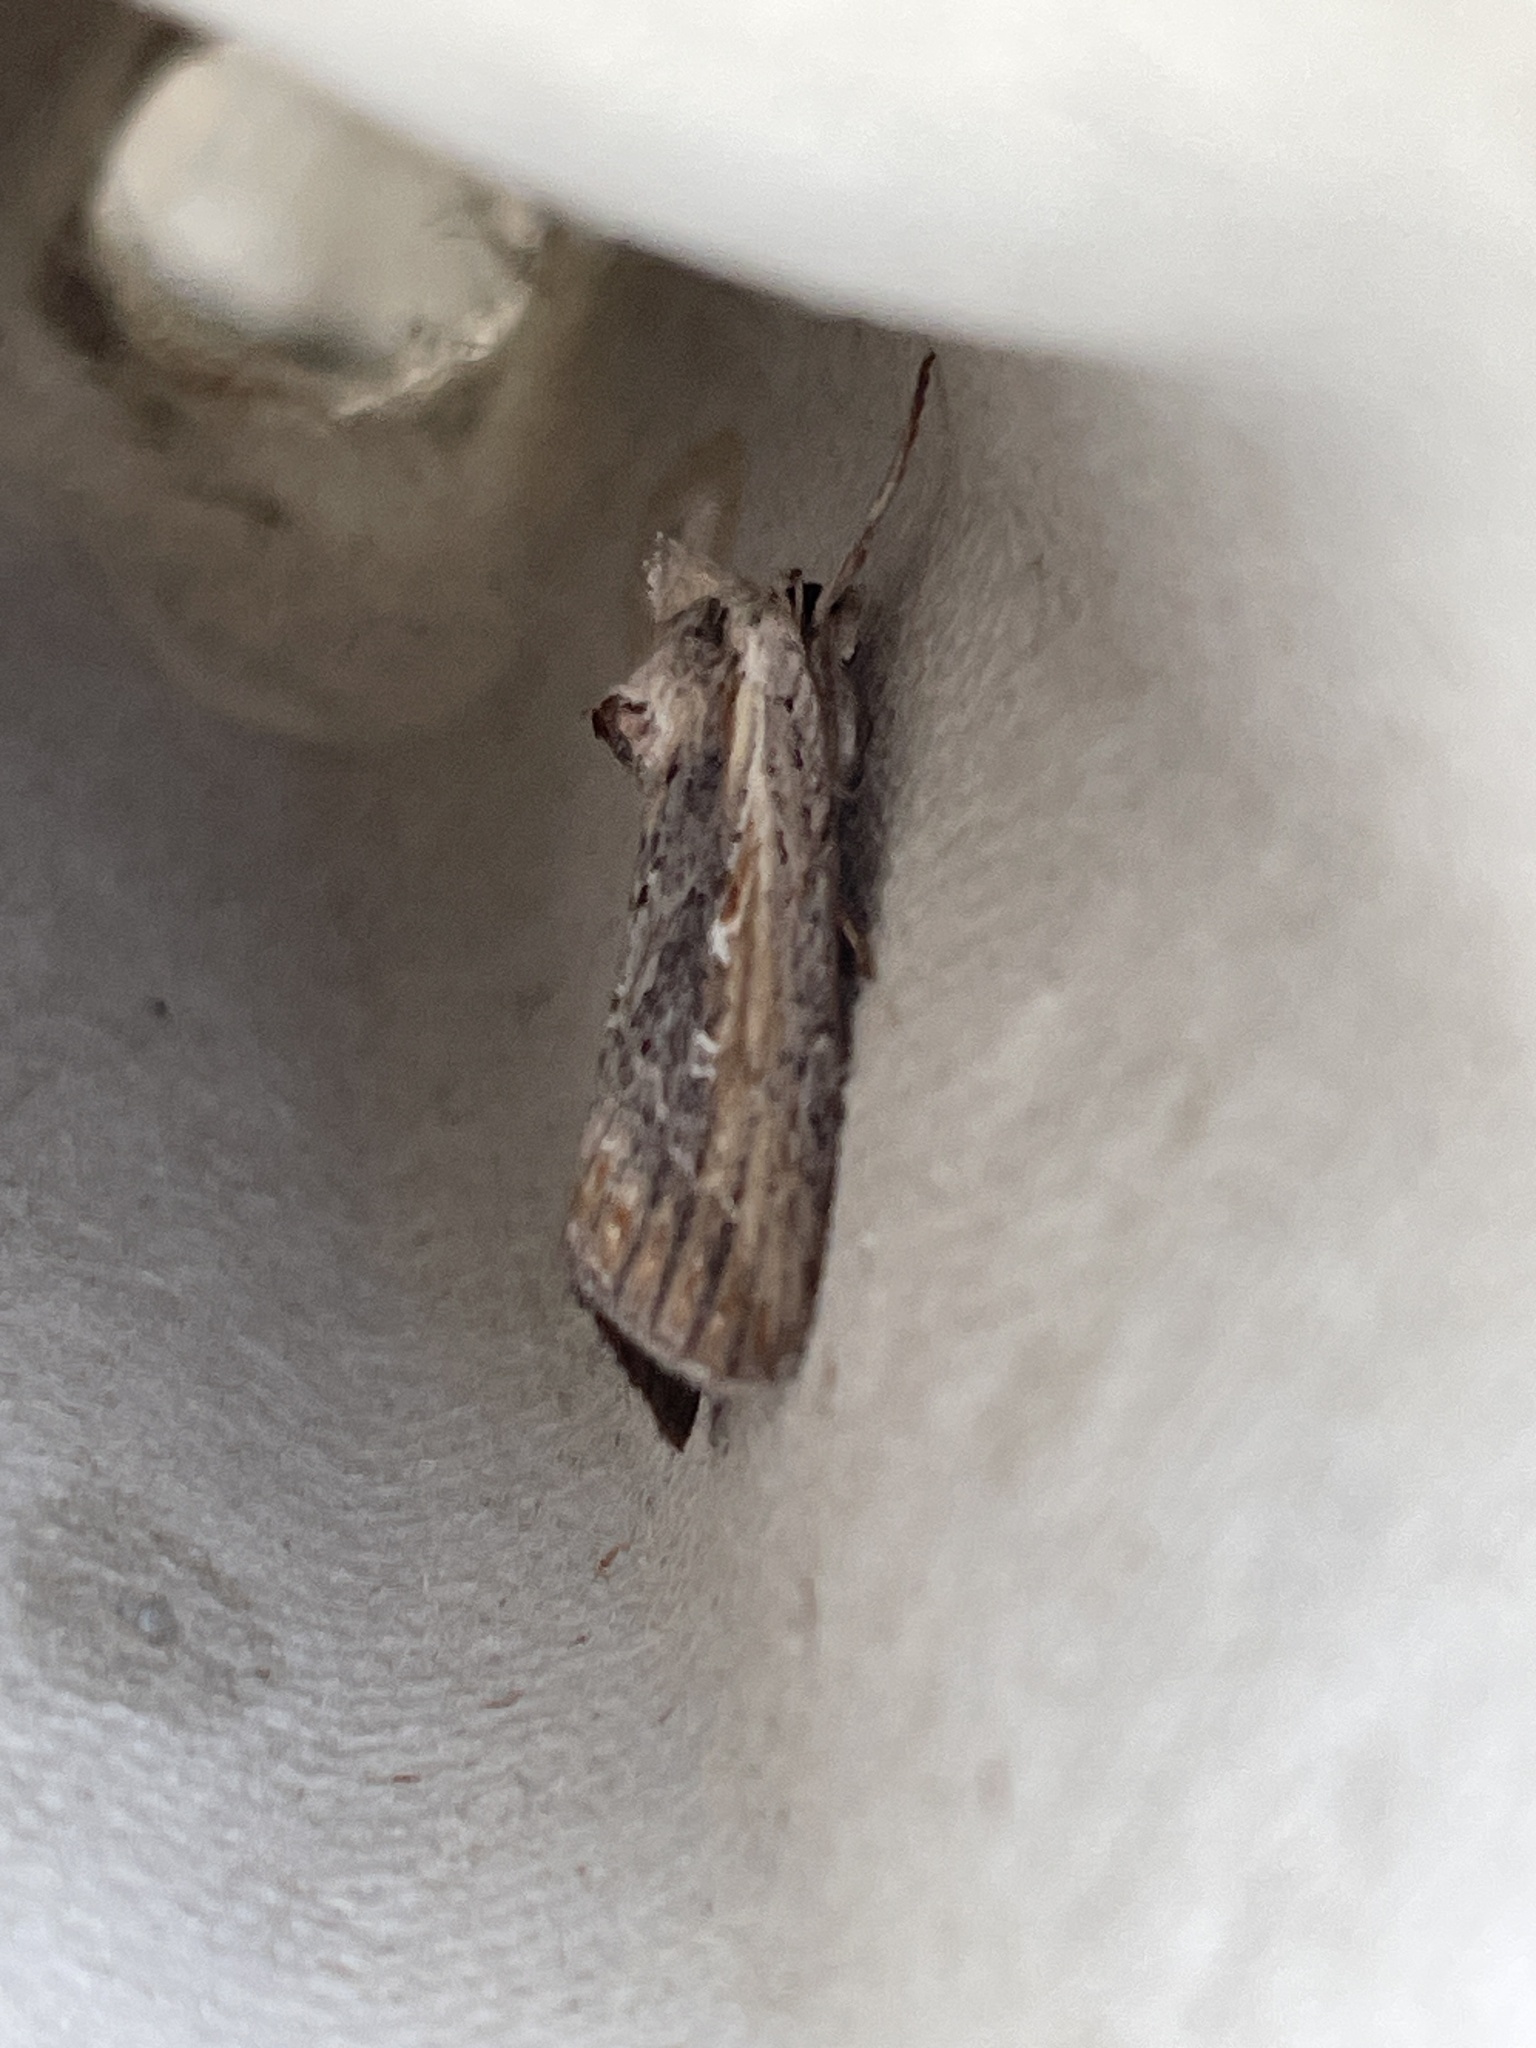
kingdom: Animalia
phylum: Arthropoda
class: Insecta
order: Lepidoptera
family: Noctuidae
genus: Epimecia
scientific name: Epimecia ustula
